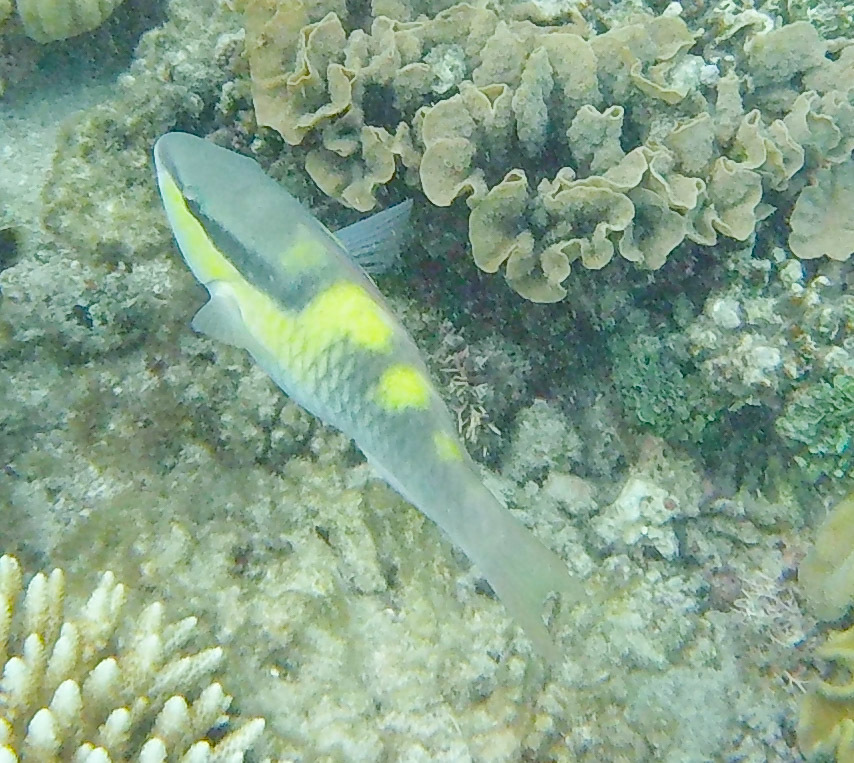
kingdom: Animalia
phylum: Chordata
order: Perciformes
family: Scaridae
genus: Scarus
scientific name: Scarus oviceps
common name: Blue parrotfish
